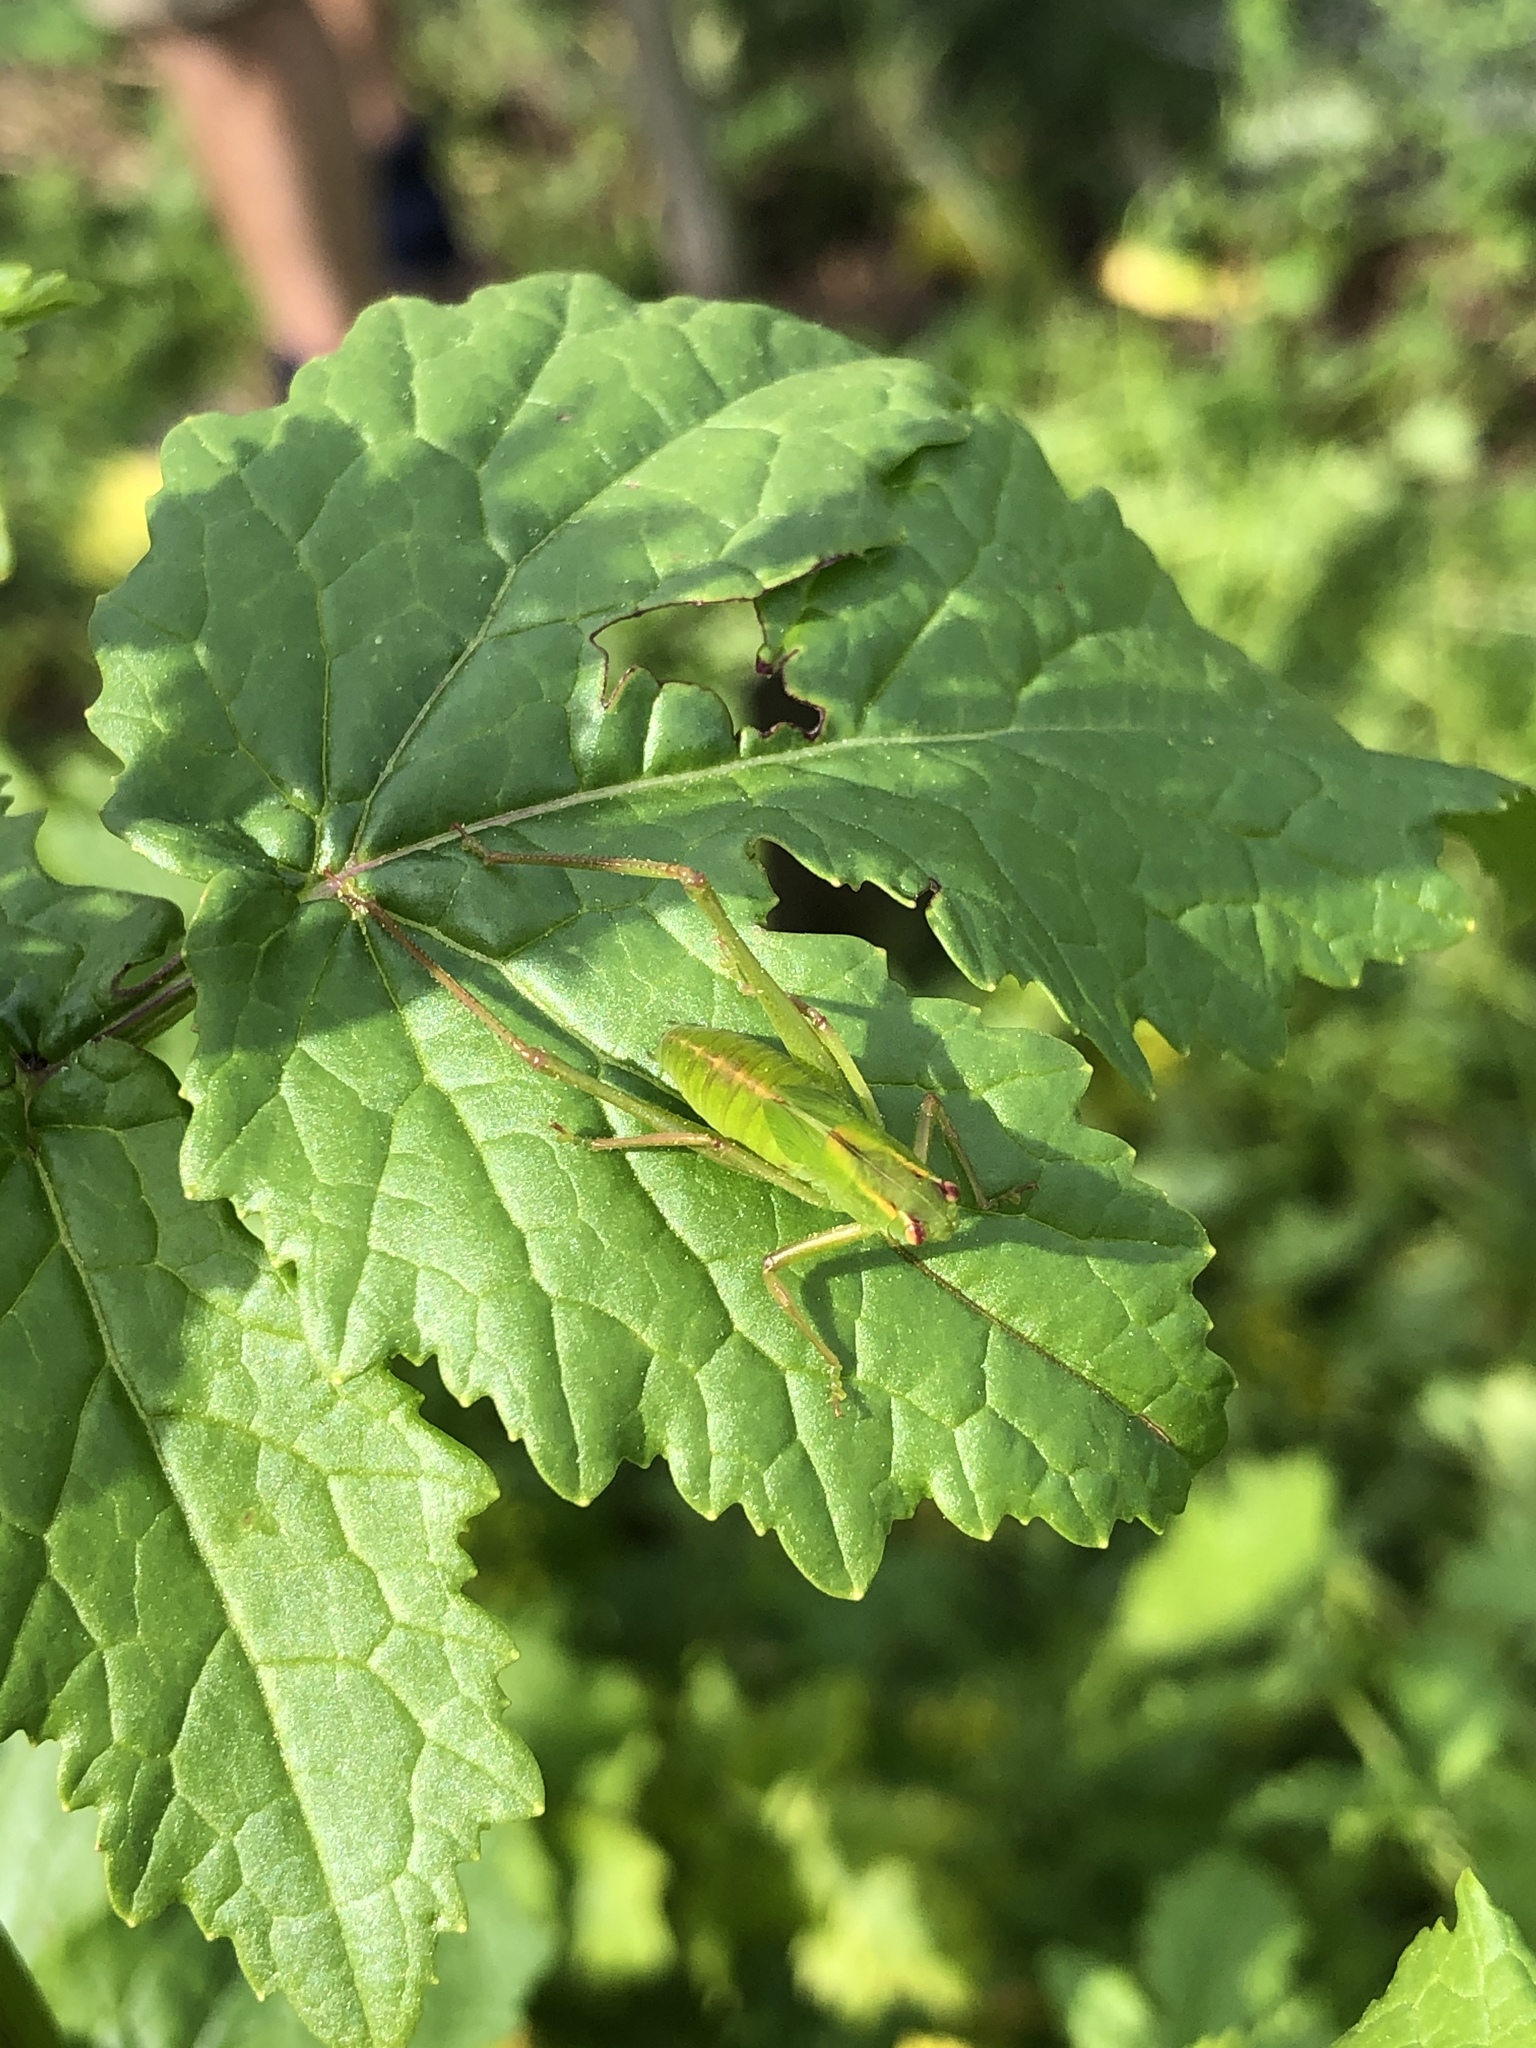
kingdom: Animalia
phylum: Arthropoda
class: Insecta
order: Orthoptera
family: Tettigoniidae
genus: Caedicia
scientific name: Caedicia simplex
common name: Common garden katydid
